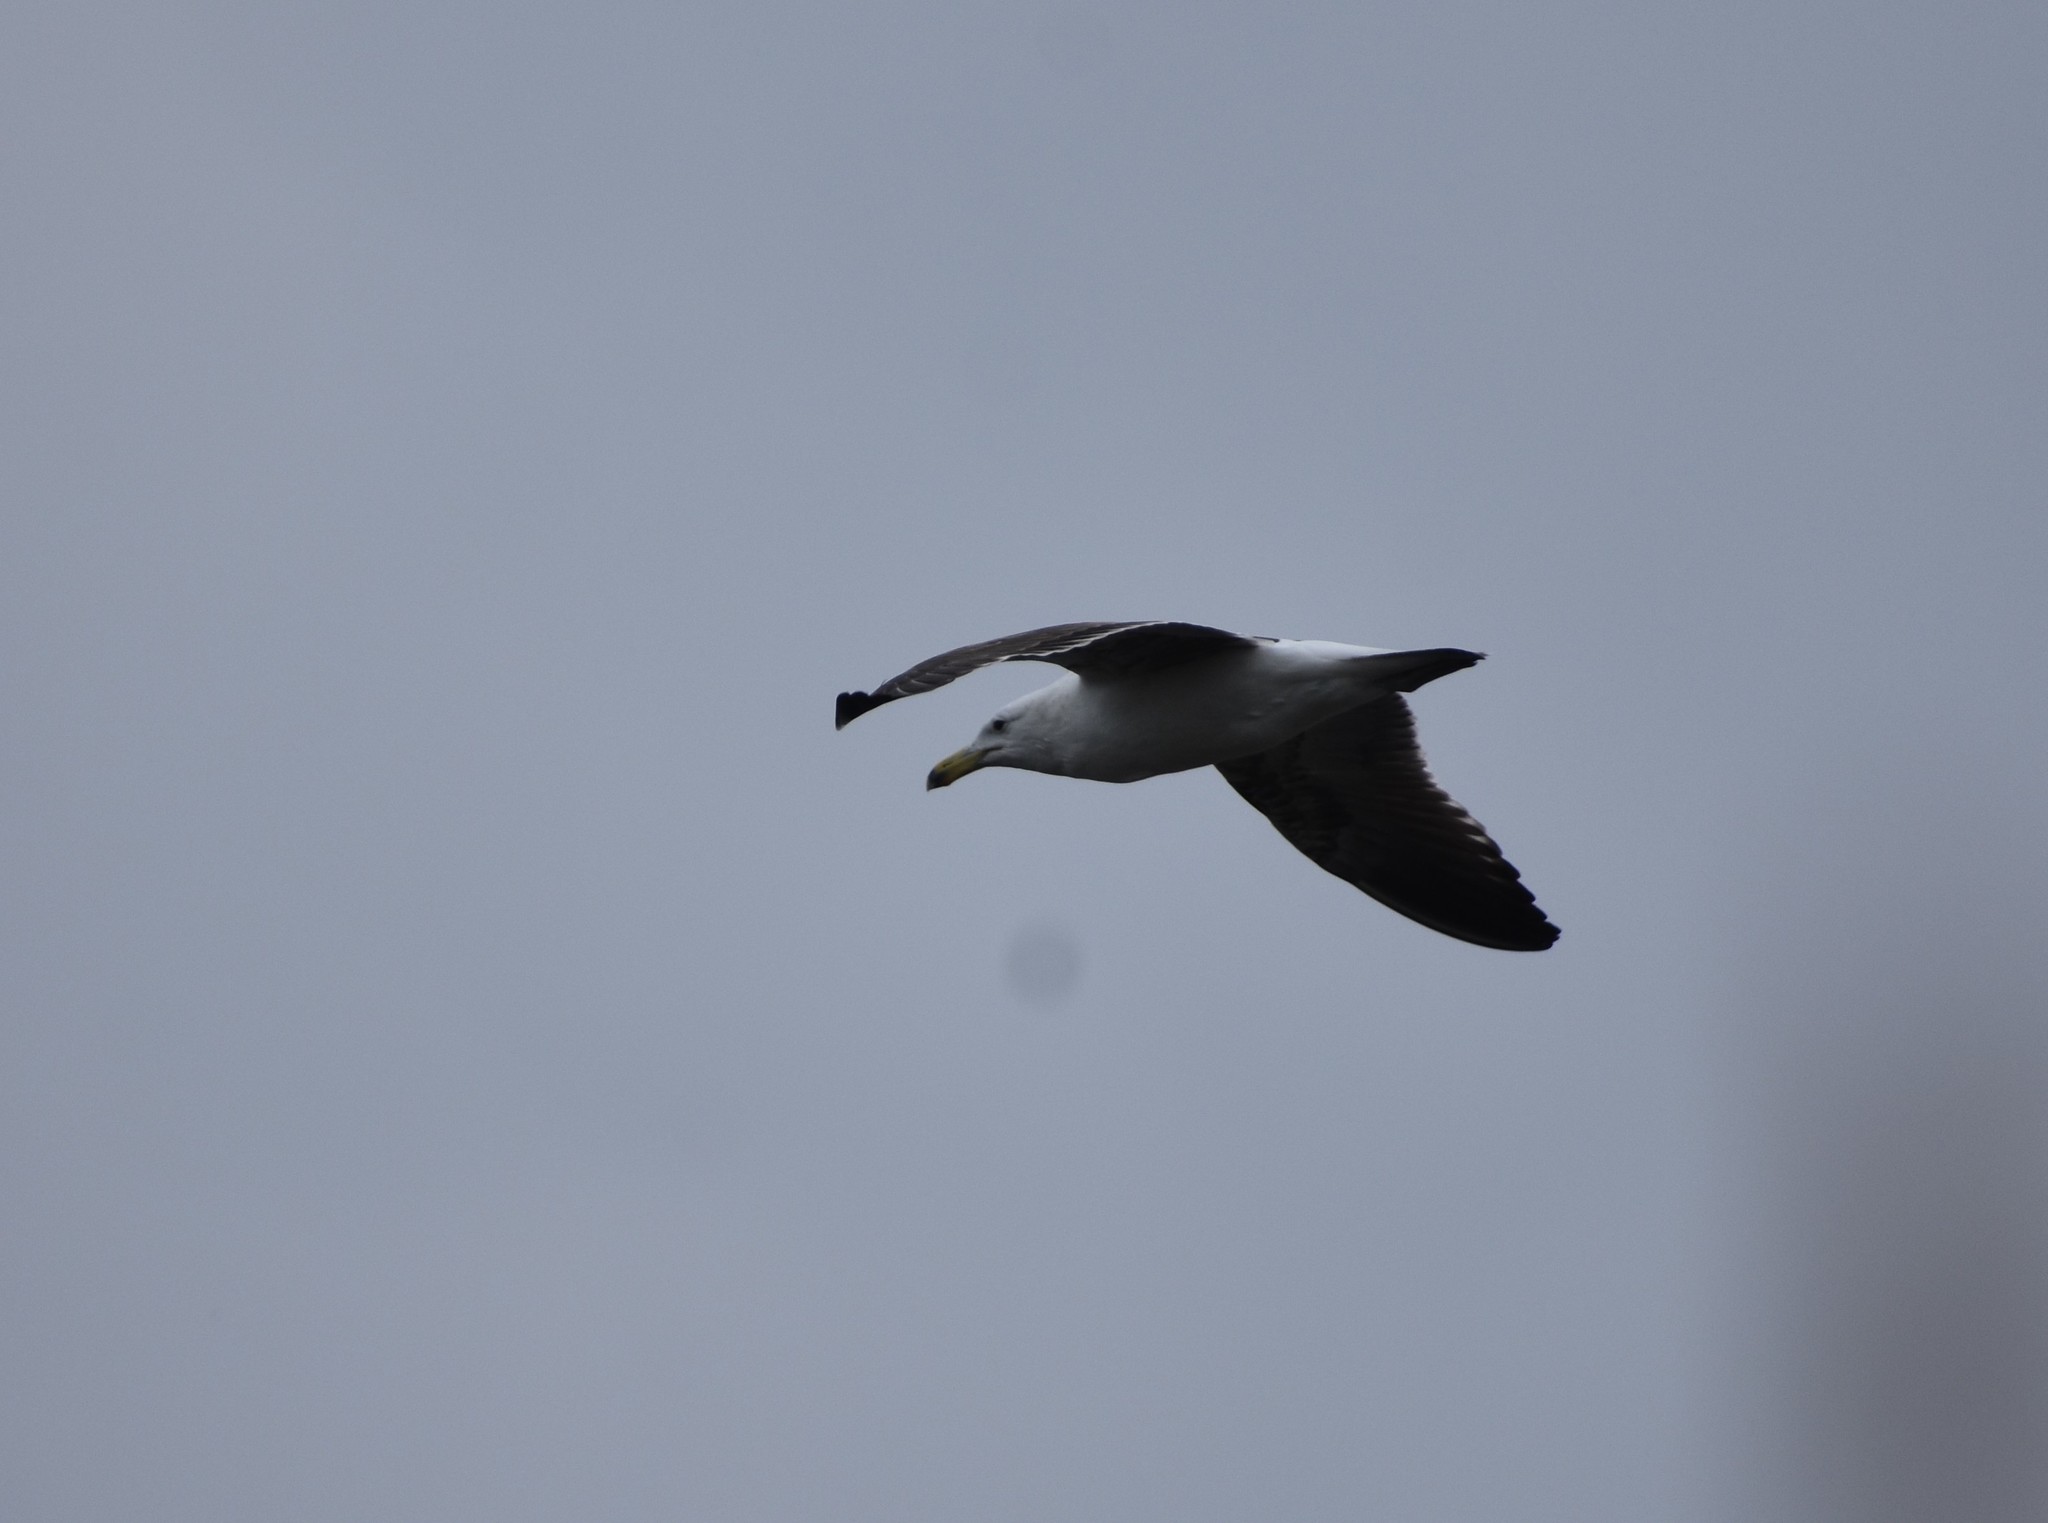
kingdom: Animalia
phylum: Chordata
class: Aves
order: Charadriiformes
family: Laridae
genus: Larus
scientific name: Larus dominicanus
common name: Kelp gull
